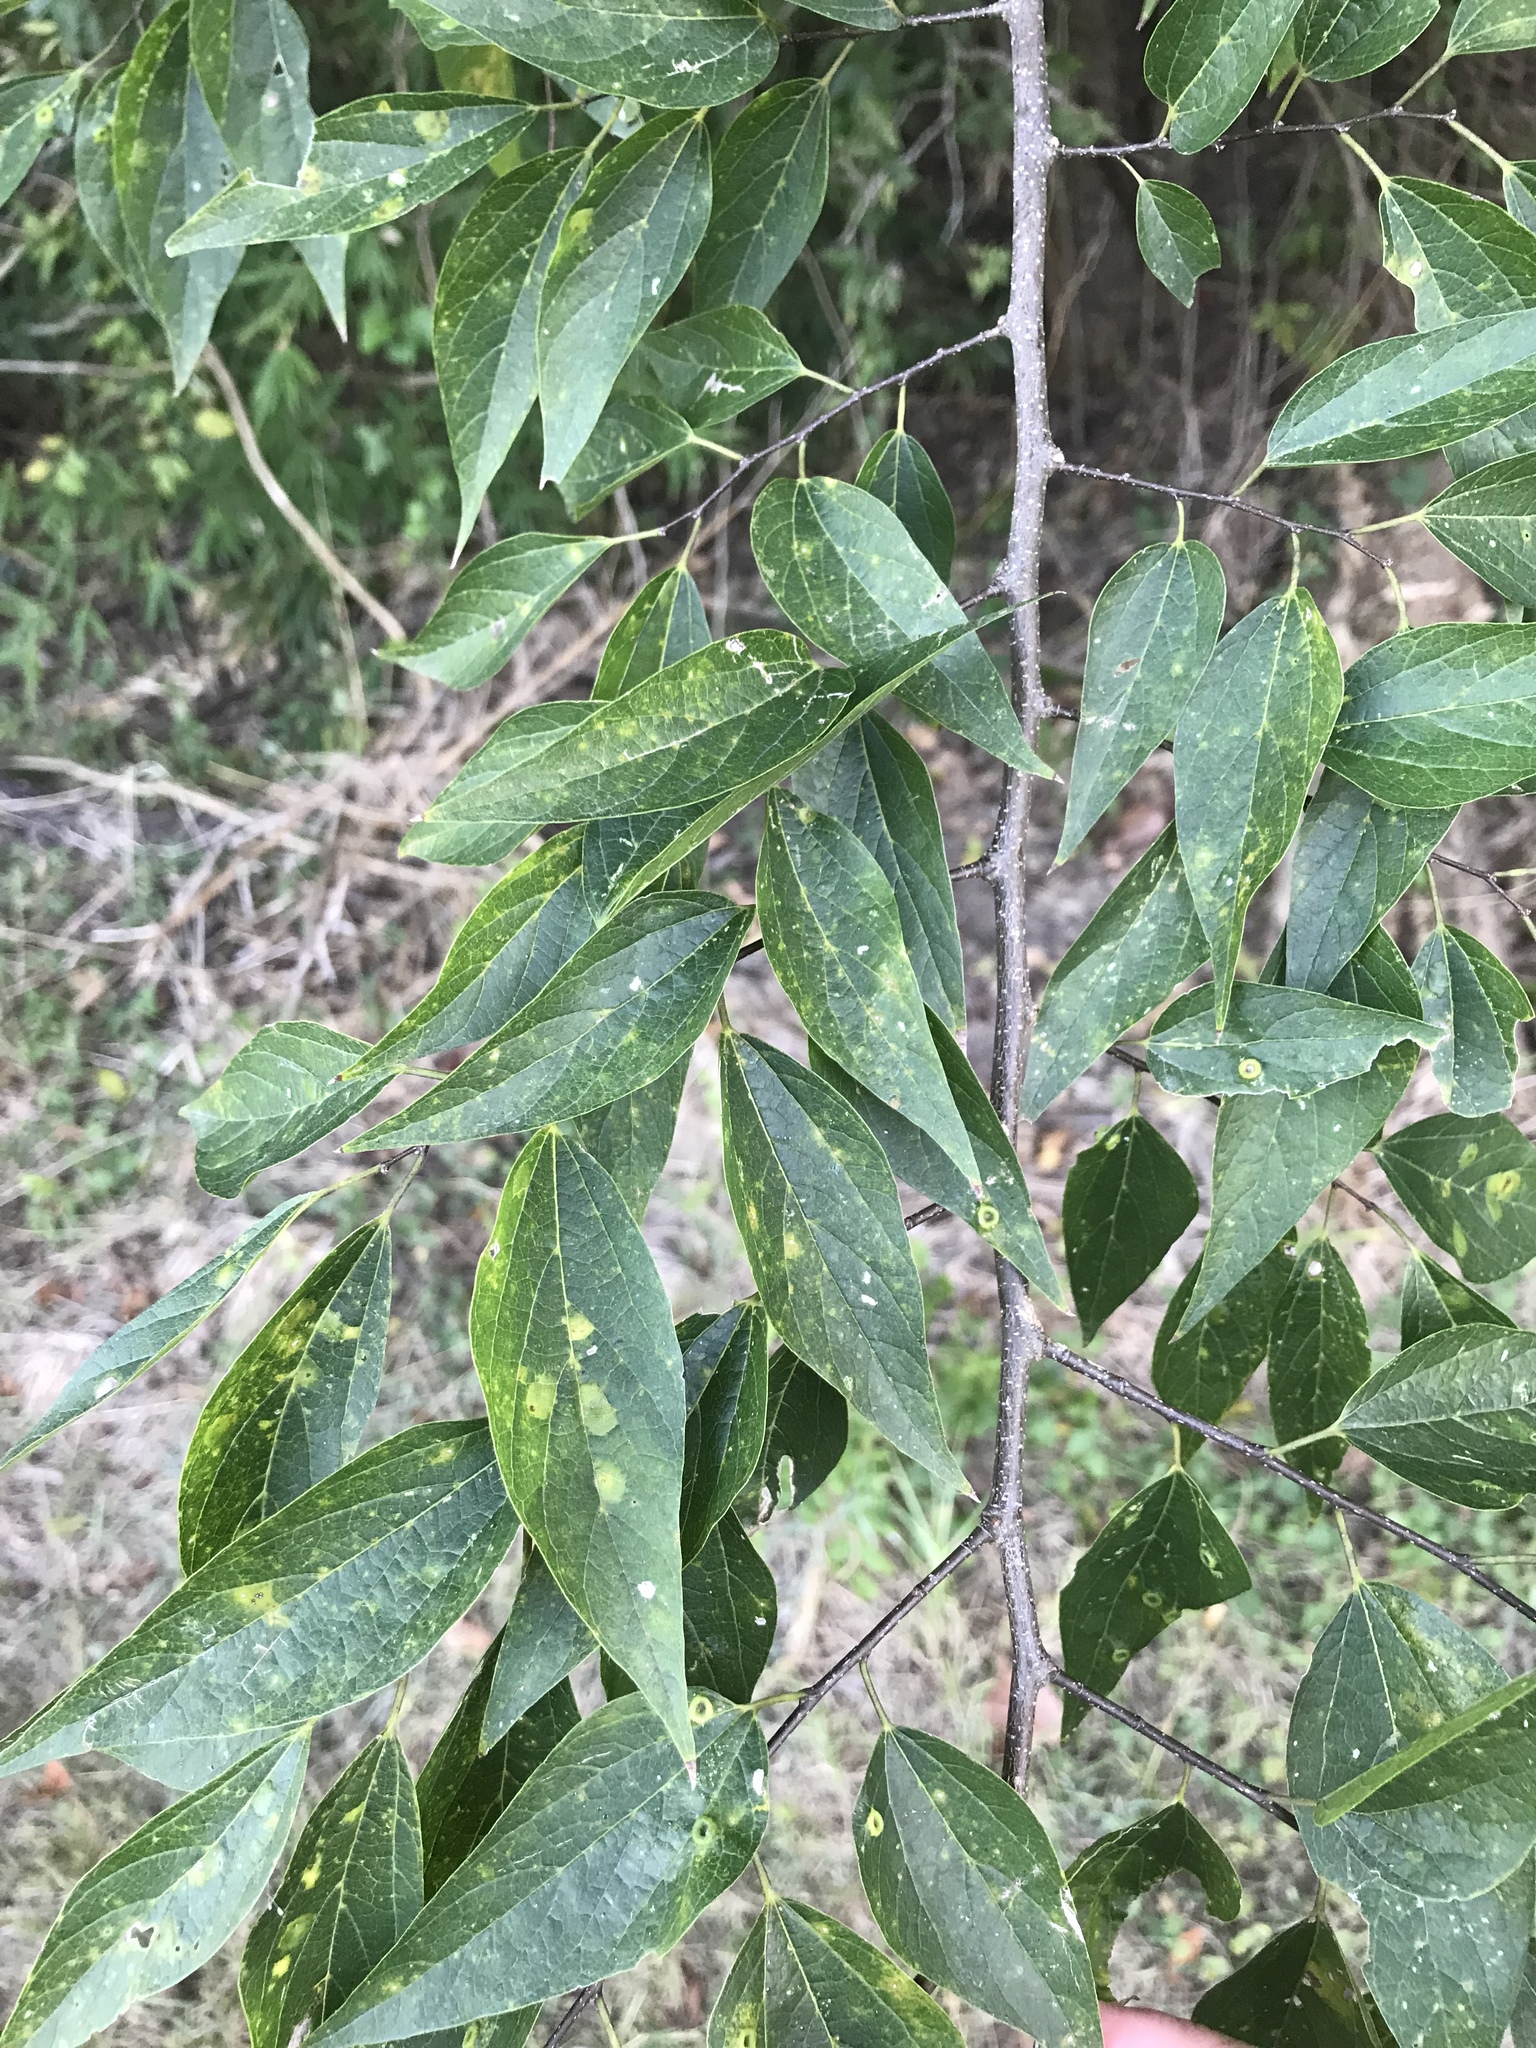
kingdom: Plantae
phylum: Tracheophyta
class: Magnoliopsida
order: Rosales
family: Cannabaceae
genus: Celtis
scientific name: Celtis laevigata
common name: Sugarberry
